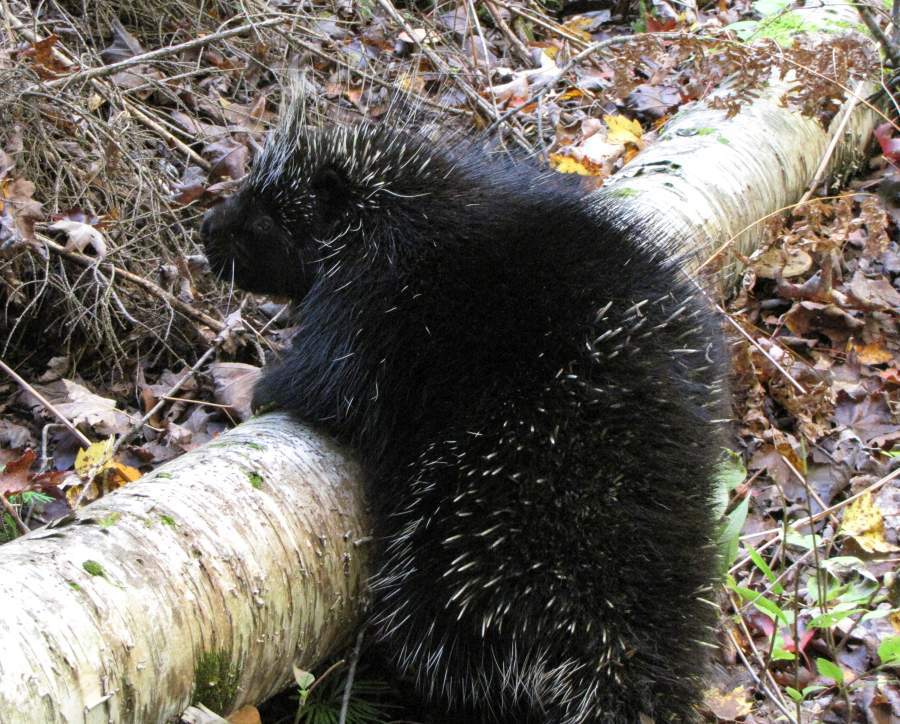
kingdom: Animalia
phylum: Chordata
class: Mammalia
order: Rodentia
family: Erethizontidae
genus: Erethizon
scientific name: Erethizon dorsatus
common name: North american porcupine
